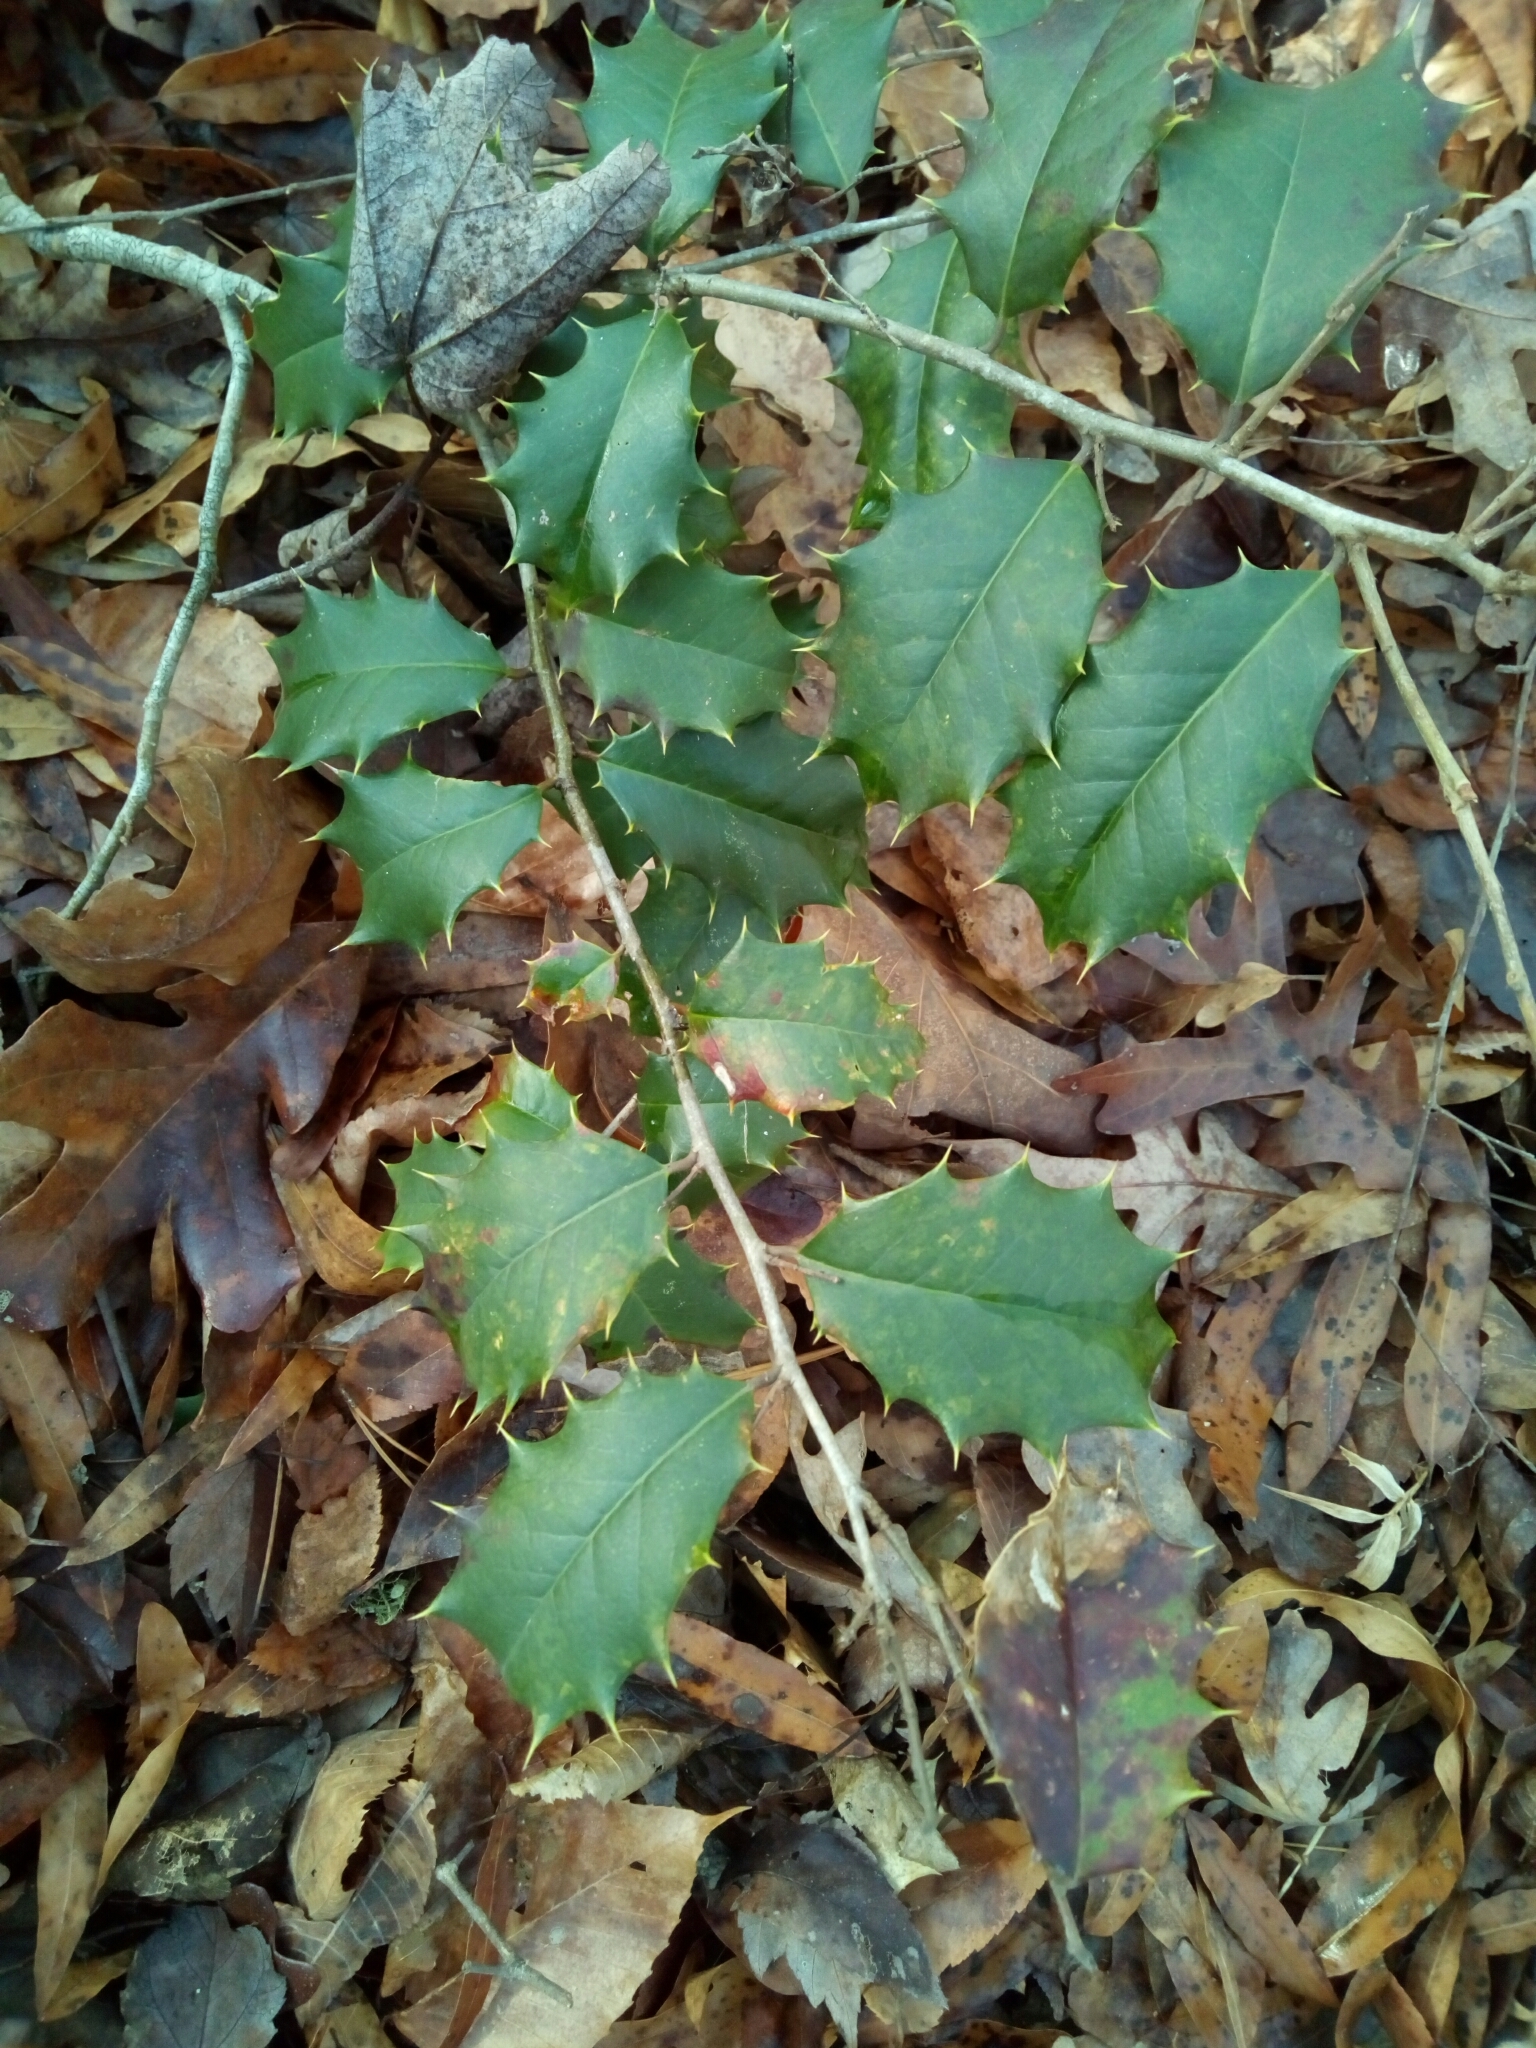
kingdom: Plantae
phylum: Tracheophyta
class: Magnoliopsida
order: Aquifoliales
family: Aquifoliaceae
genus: Ilex
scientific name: Ilex opaca
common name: American holly
